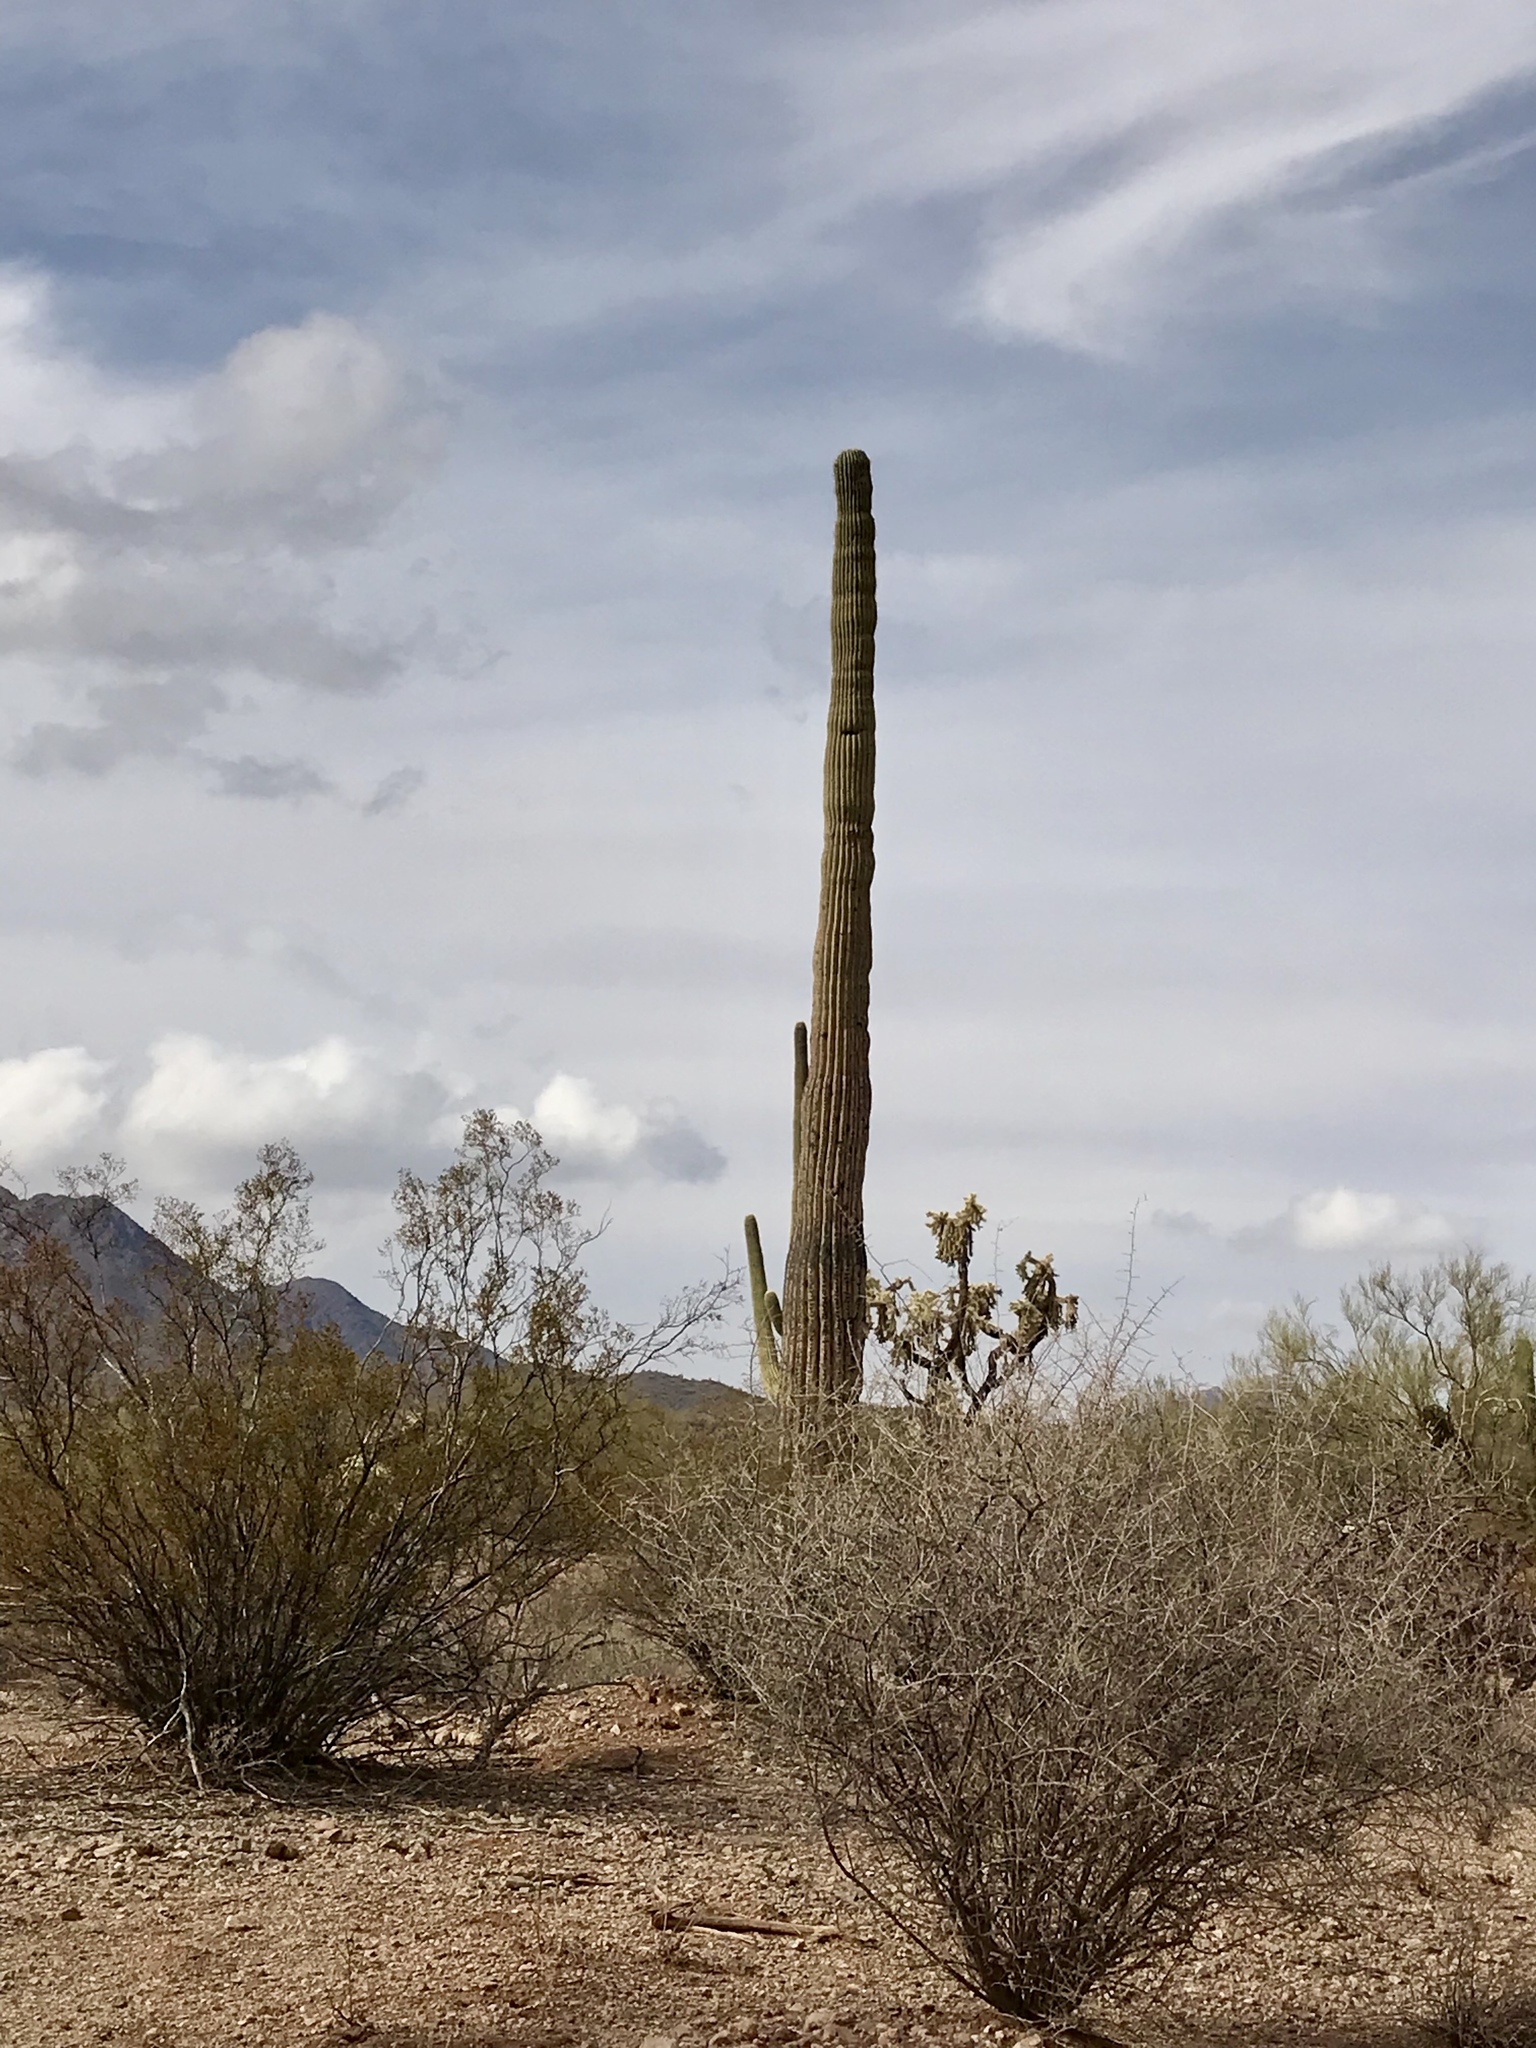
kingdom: Plantae
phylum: Tracheophyta
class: Magnoliopsida
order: Caryophyllales
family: Cactaceae
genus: Carnegiea
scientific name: Carnegiea gigantea
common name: Saguaro
